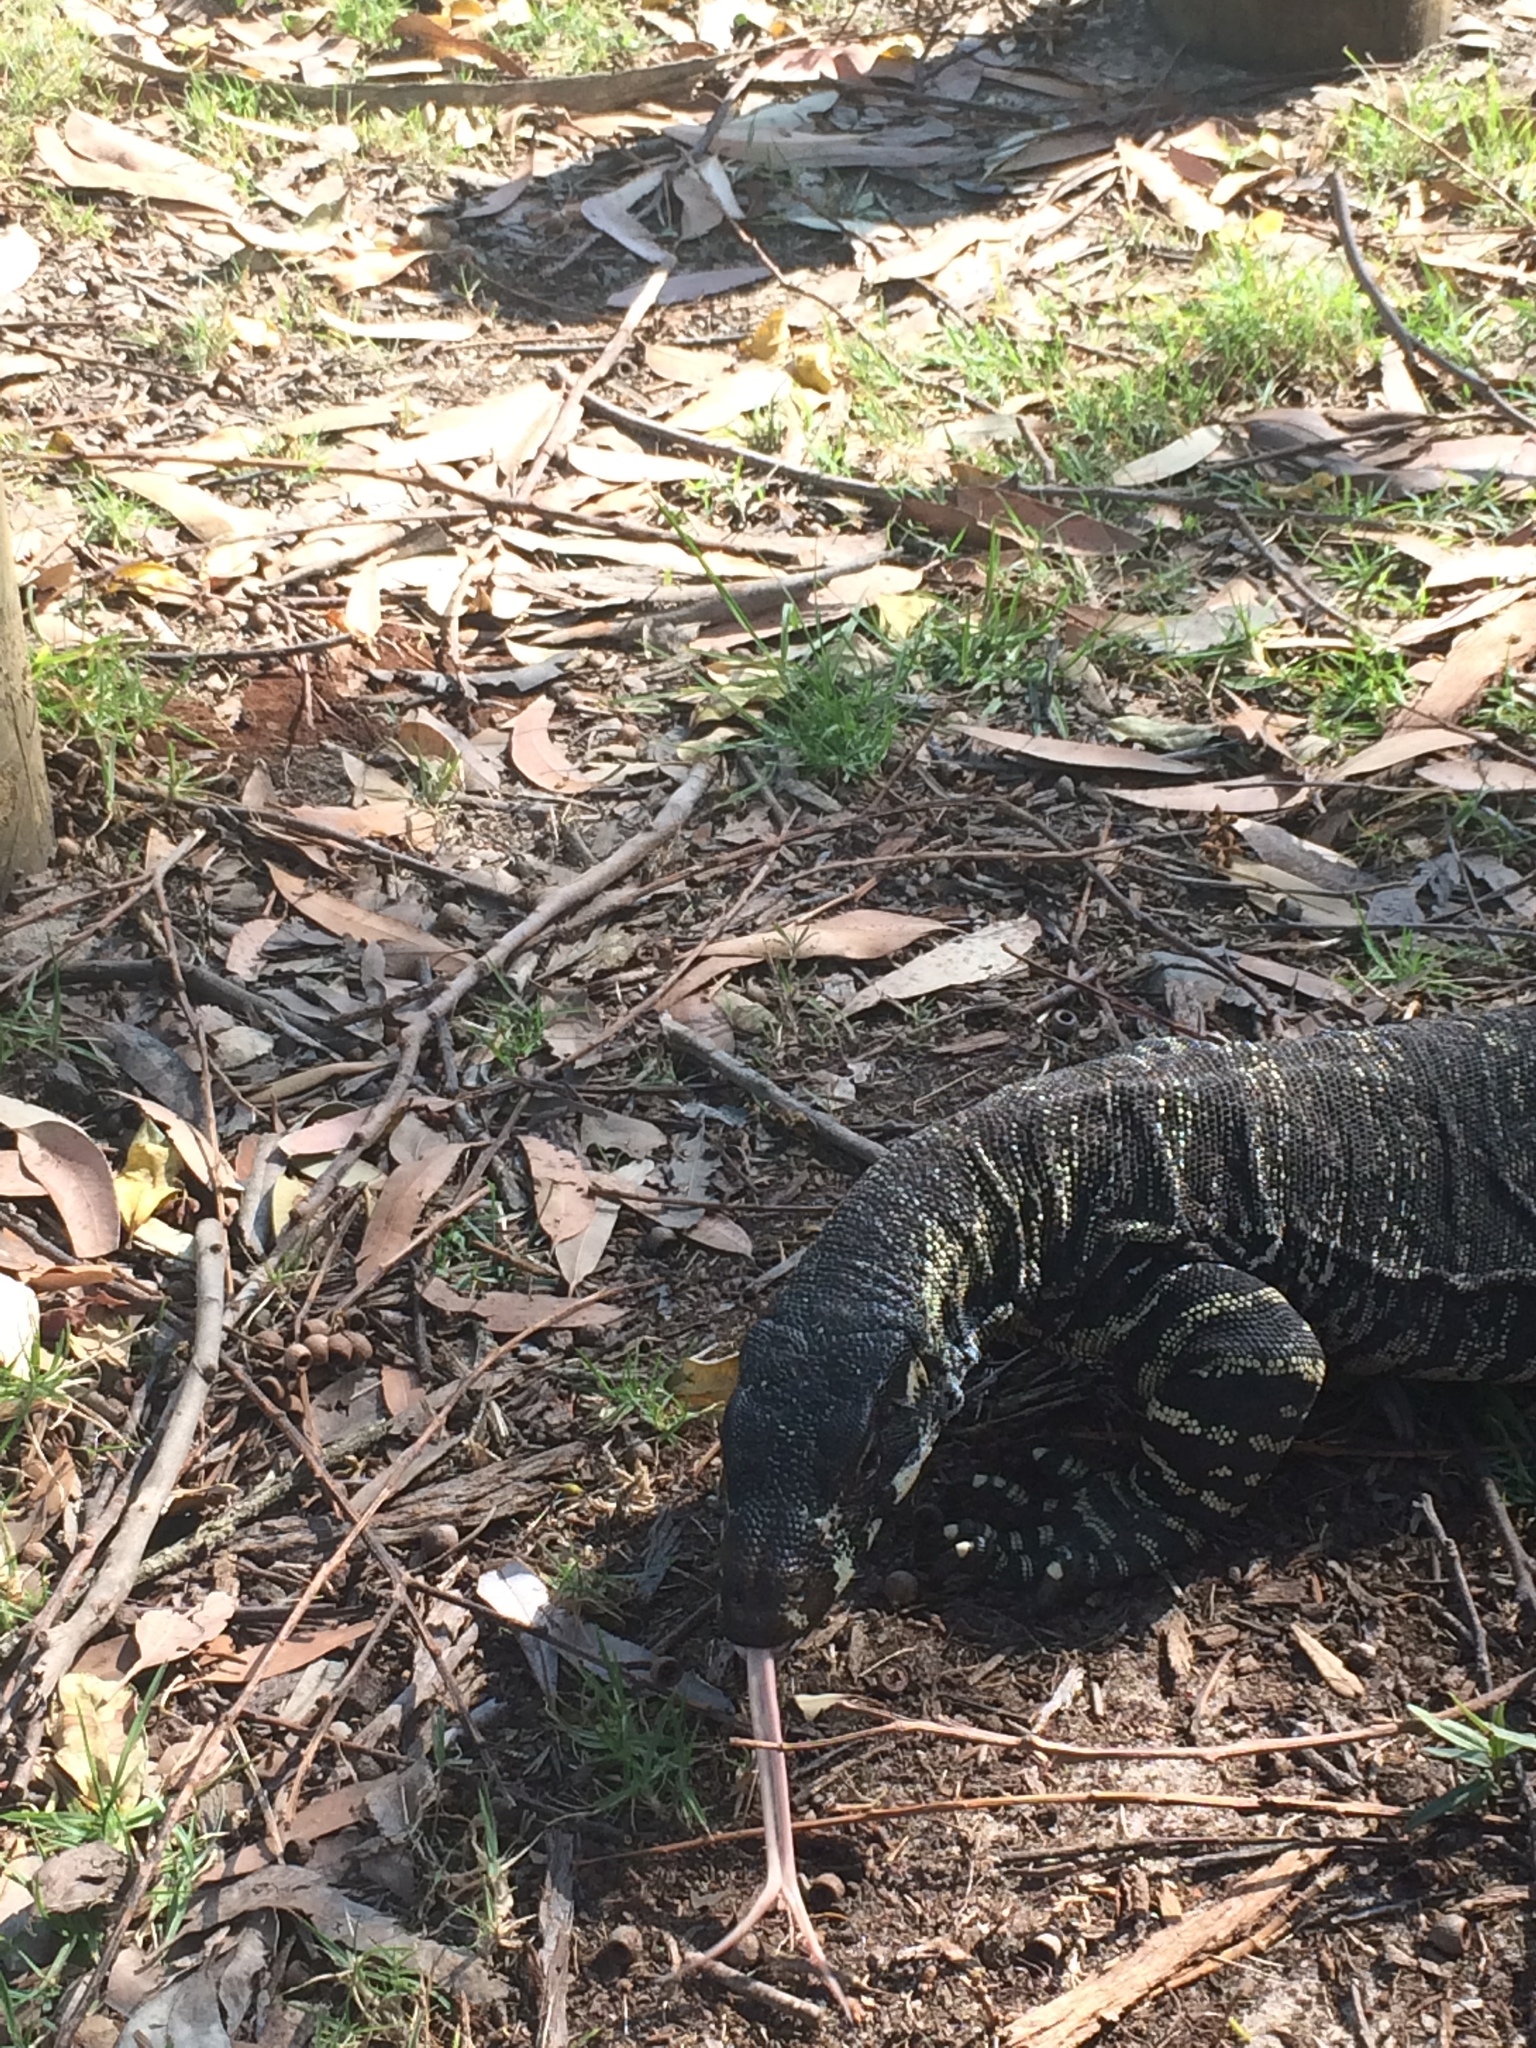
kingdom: Animalia
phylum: Chordata
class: Squamata
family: Varanidae
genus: Varanus
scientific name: Varanus varius
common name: Lace monitor
